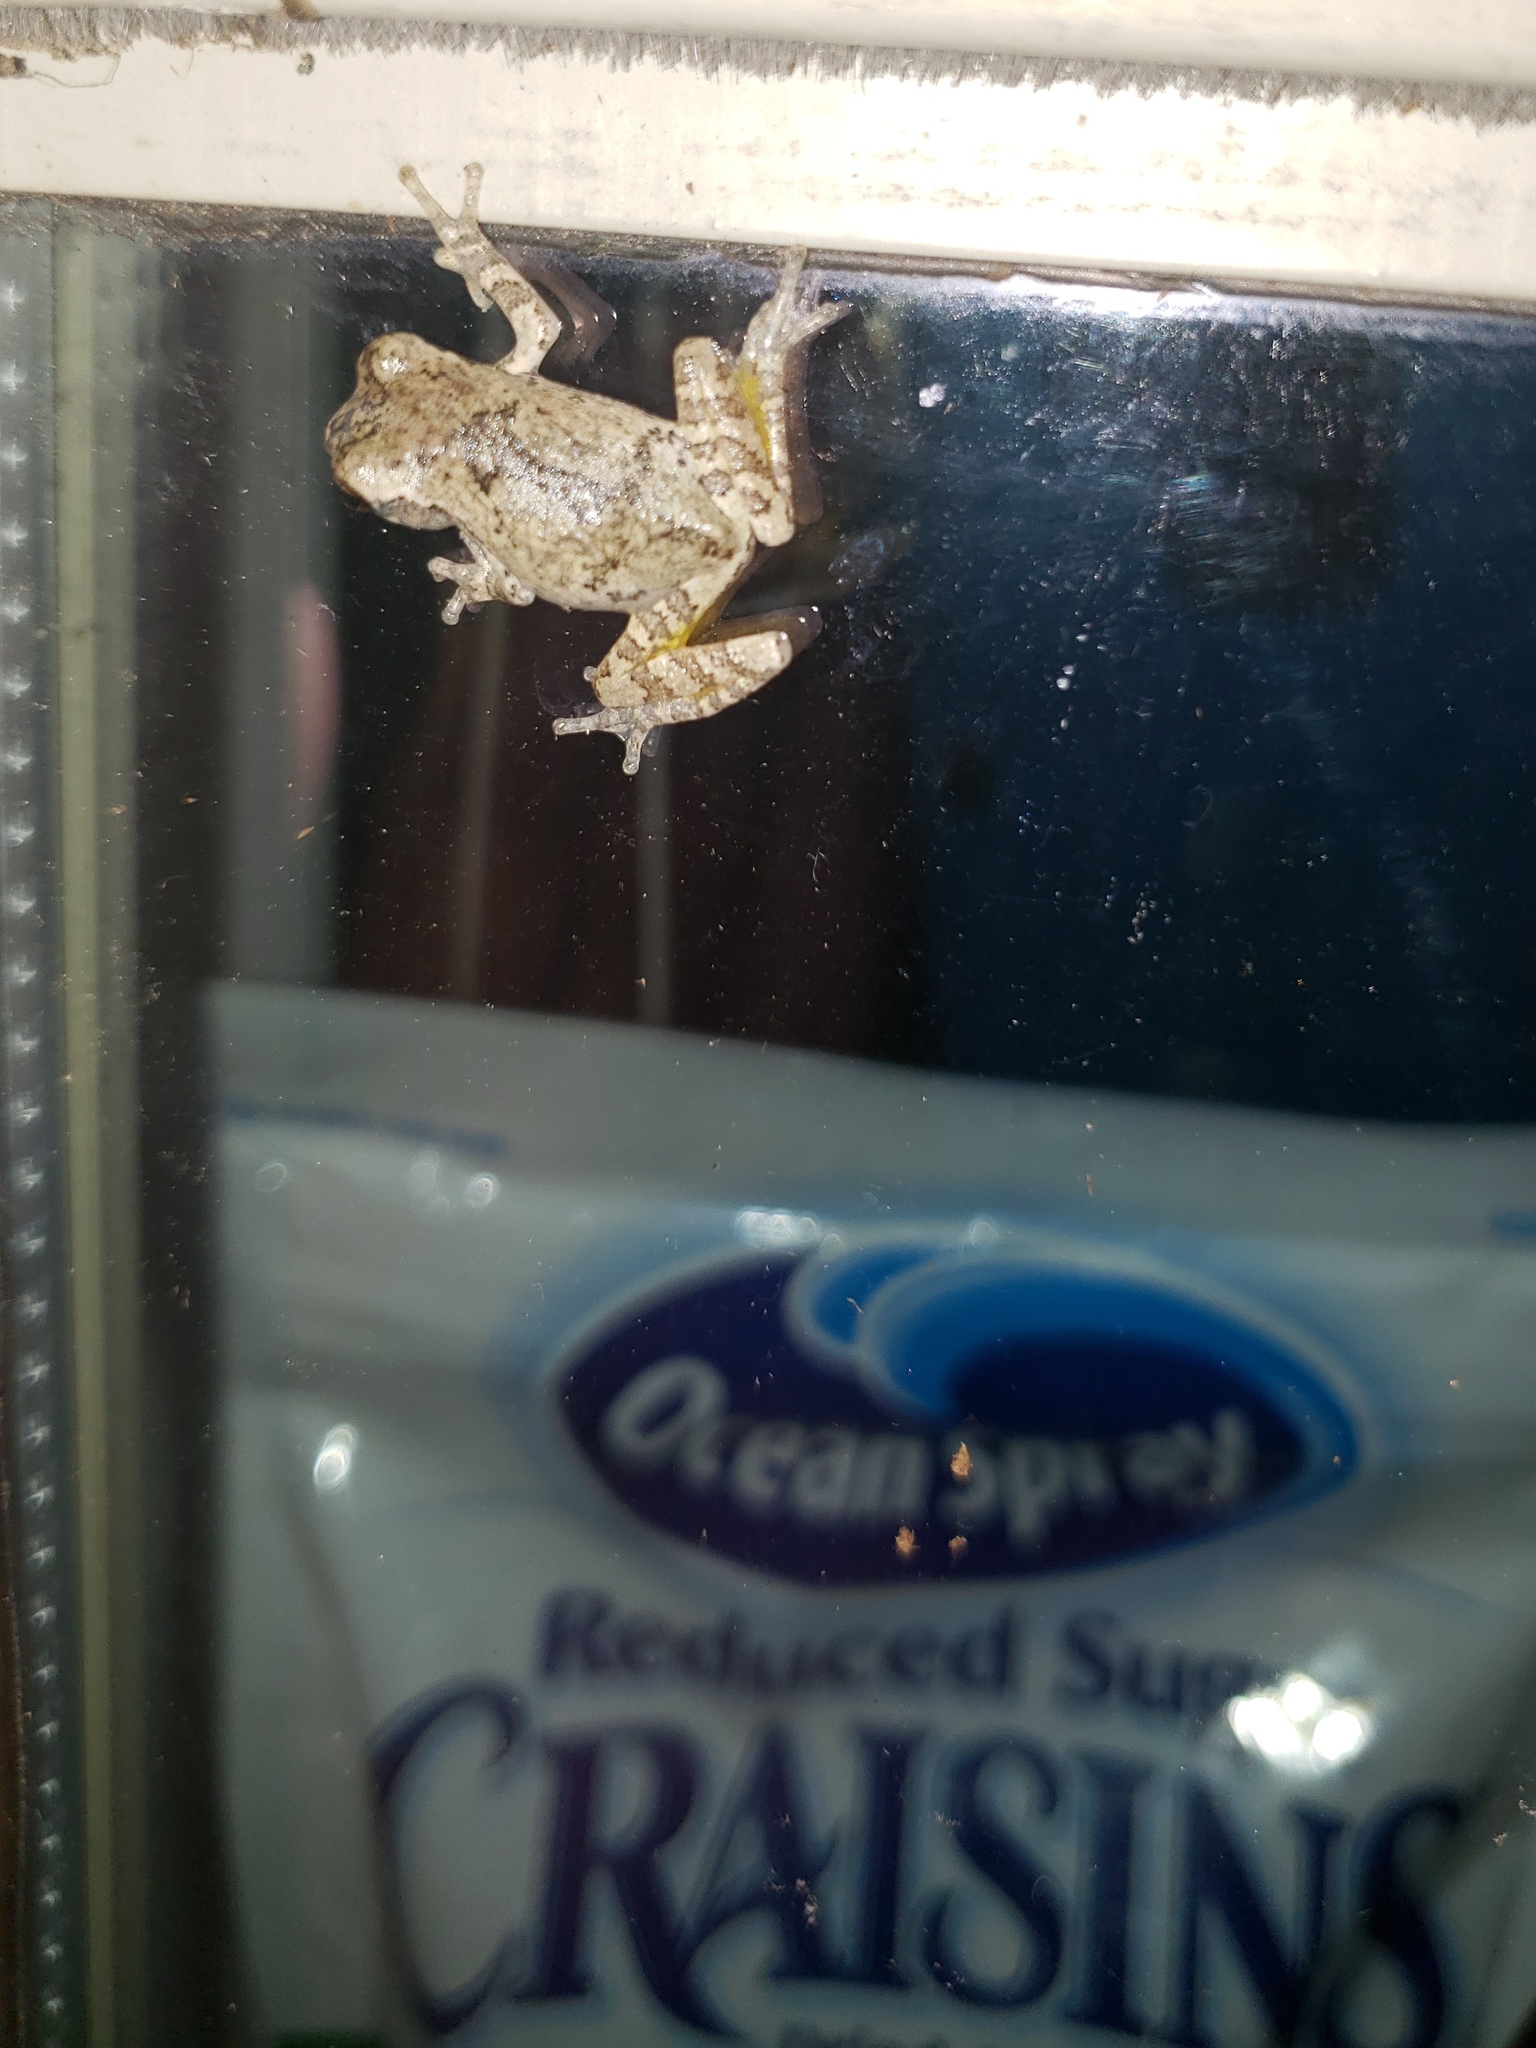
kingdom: Animalia
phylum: Chordata
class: Amphibia
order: Anura
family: Hylidae
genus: Dryophytes
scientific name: Dryophytes chrysoscelis
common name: Cope's gray treefrog
